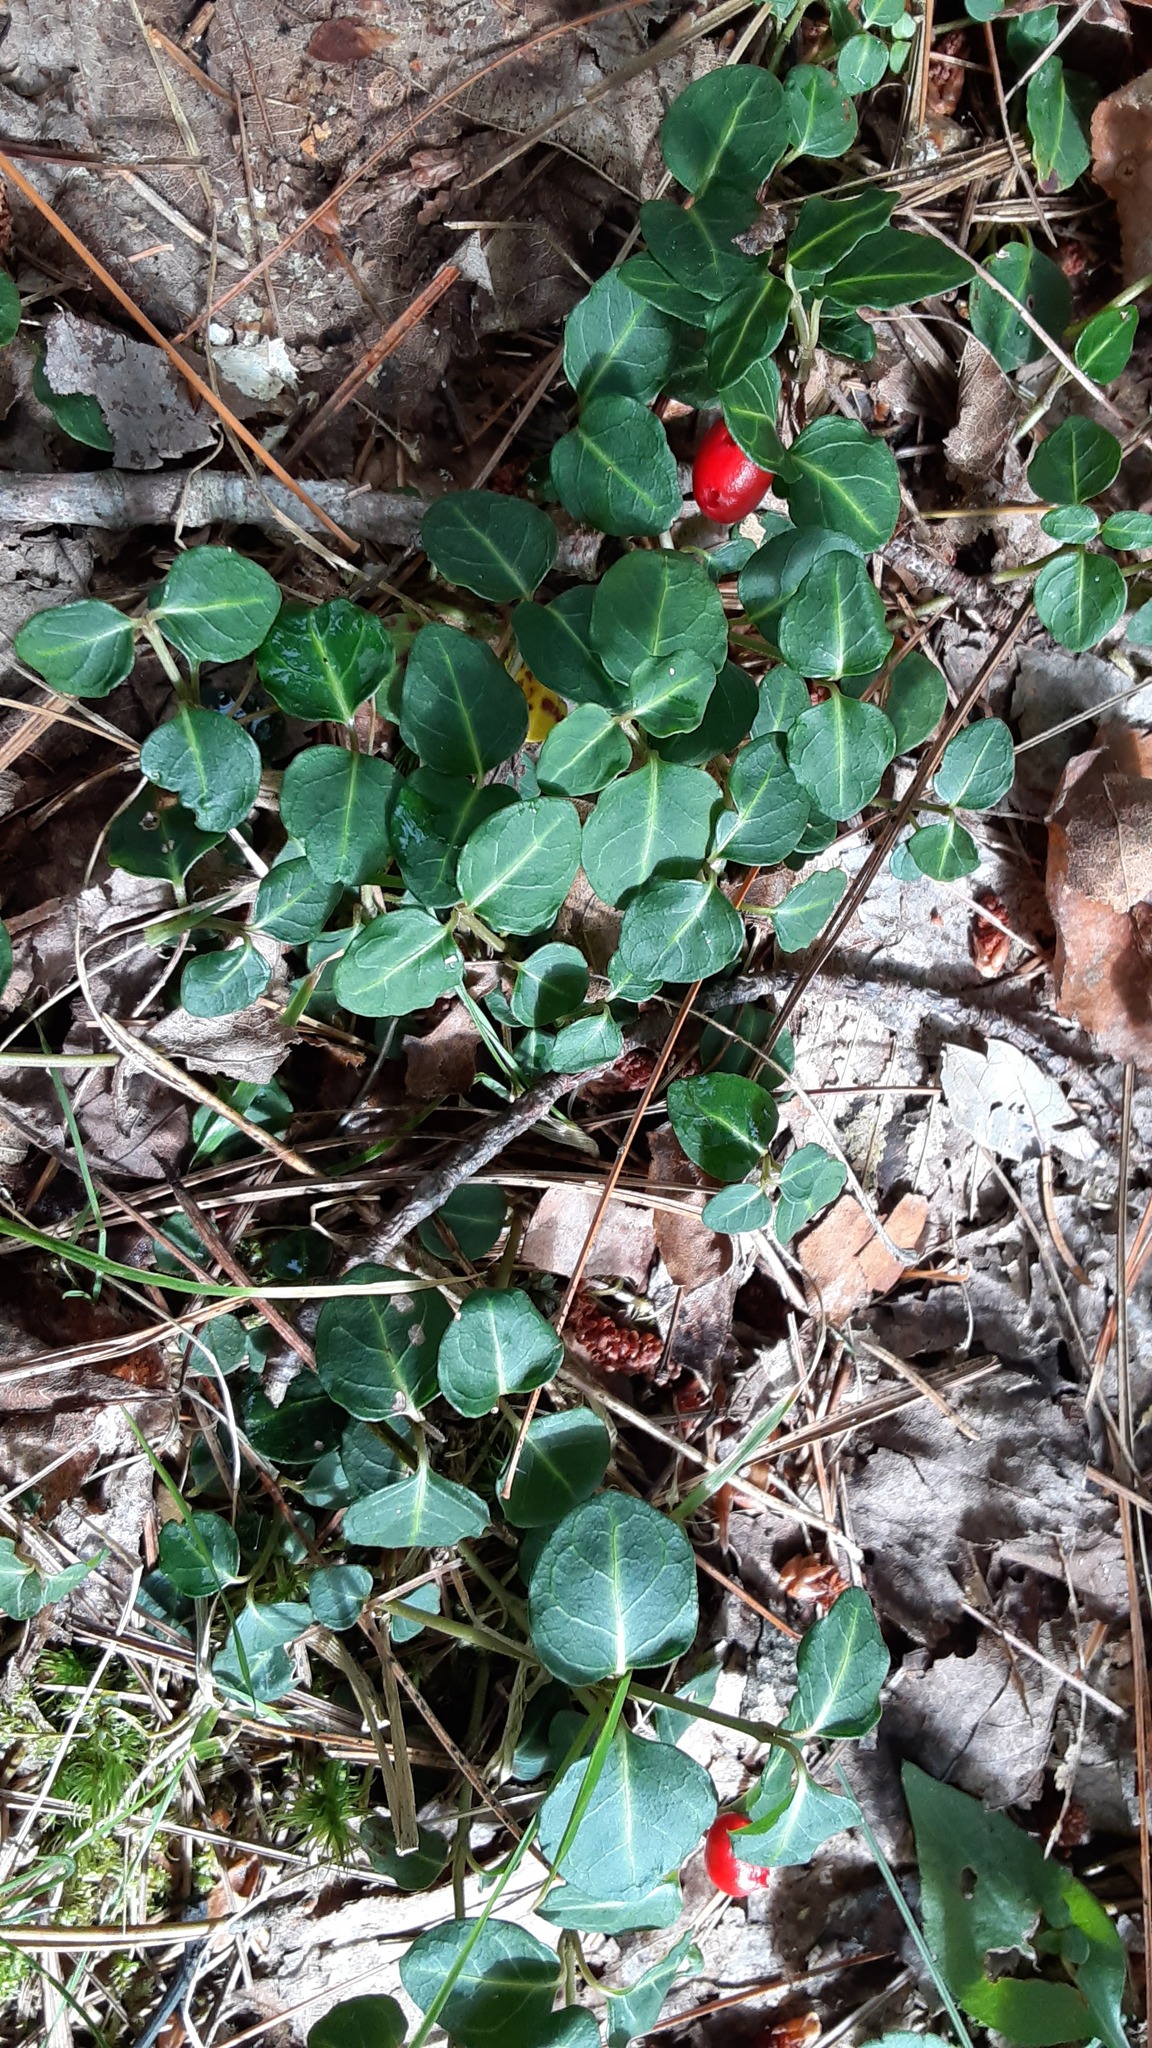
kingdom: Plantae
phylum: Tracheophyta
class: Magnoliopsida
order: Gentianales
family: Rubiaceae
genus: Mitchella
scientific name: Mitchella repens
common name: Partridge-berry
